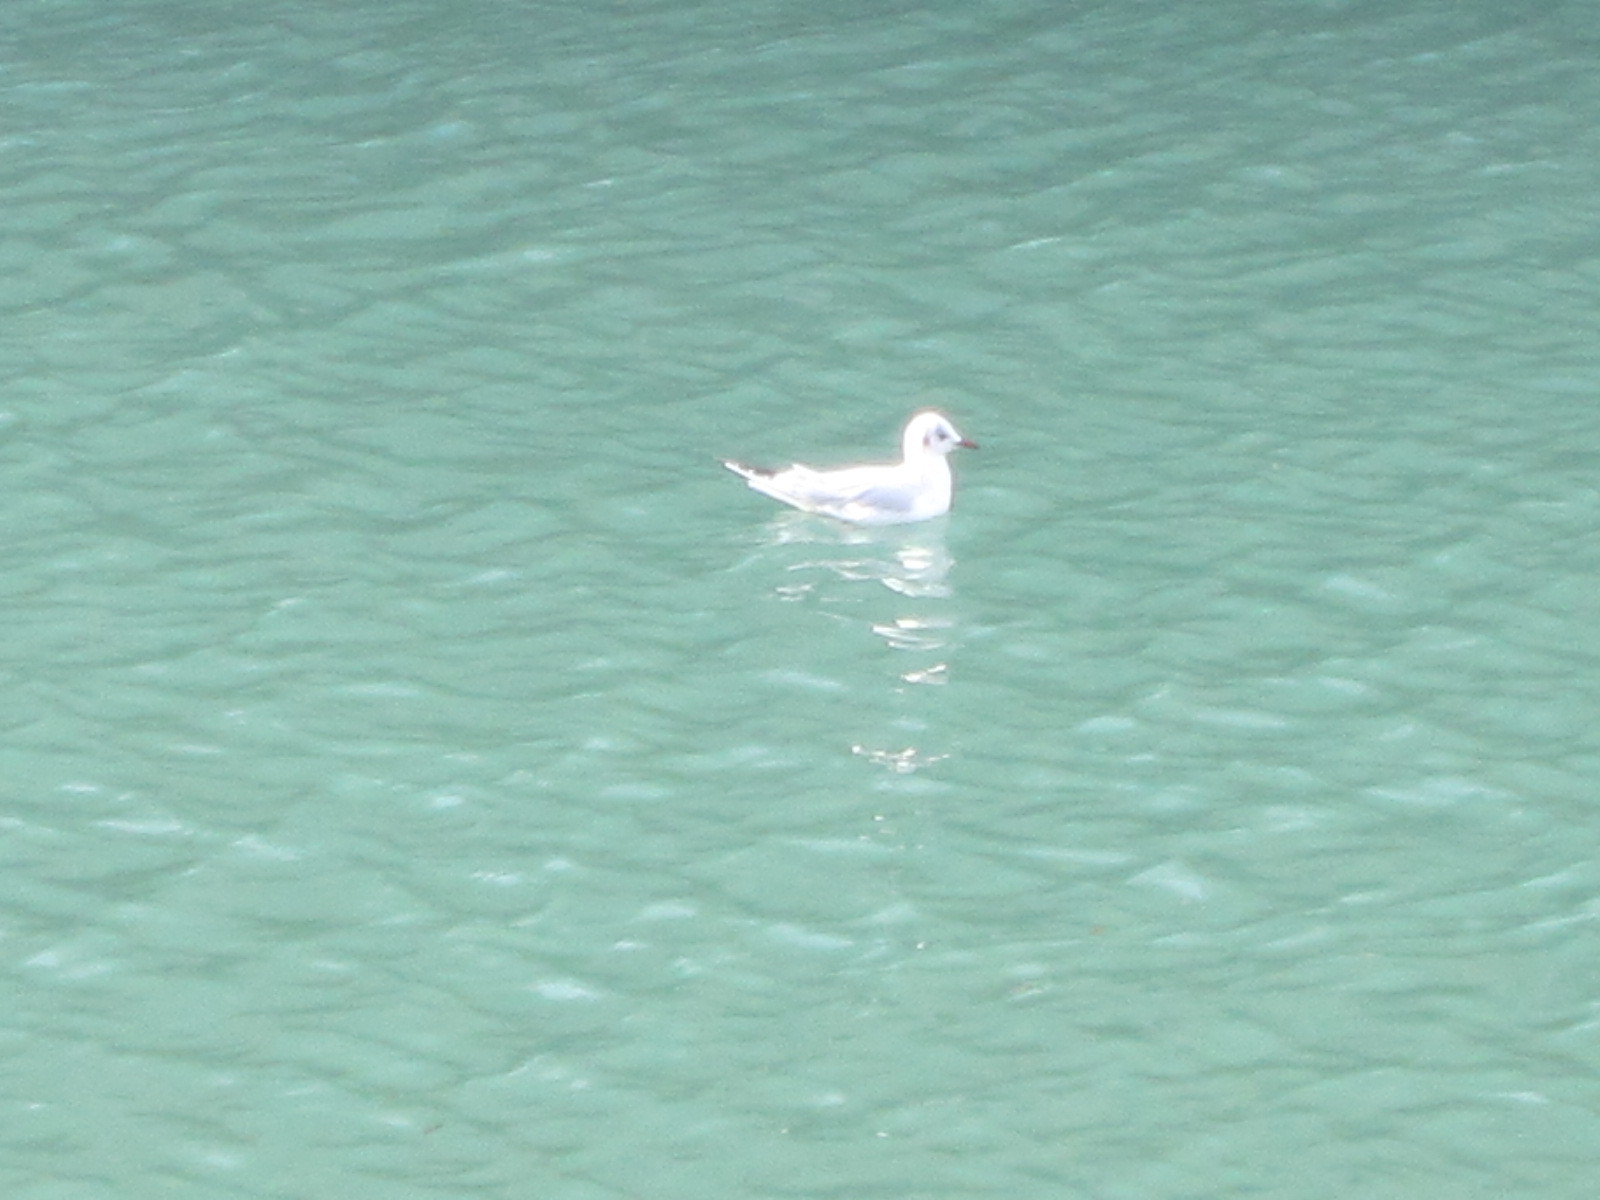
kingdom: Animalia
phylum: Chordata
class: Aves
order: Charadriiformes
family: Laridae
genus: Chroicocephalus
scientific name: Chroicocephalus ridibundus
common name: Black-headed gull
